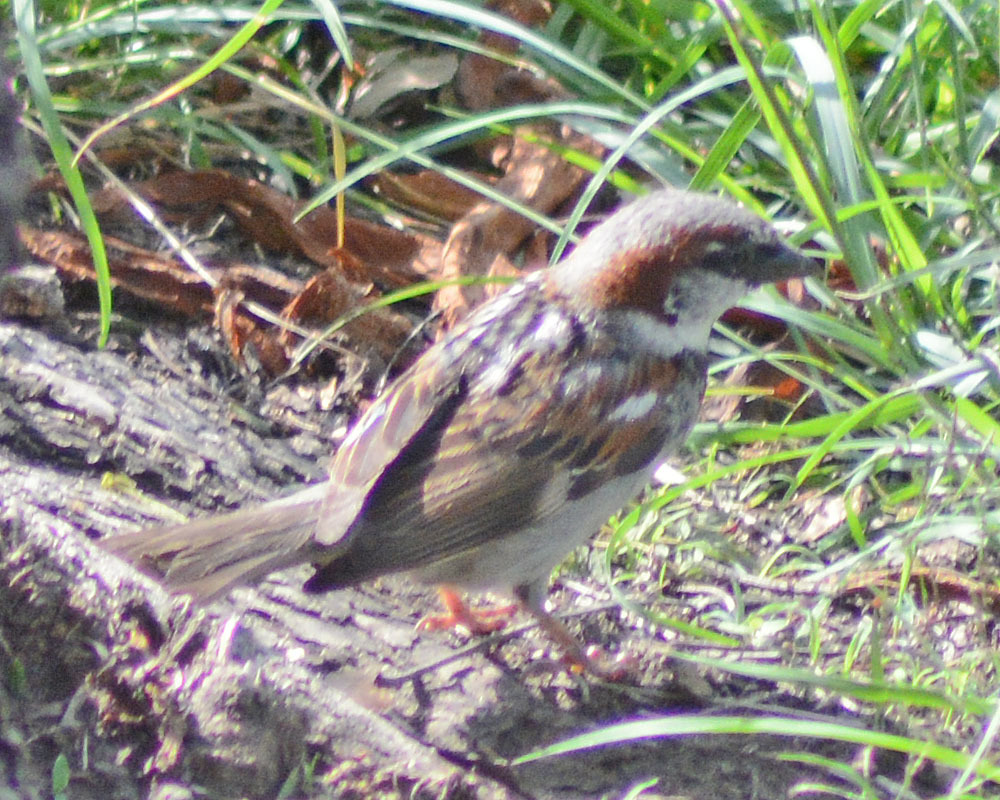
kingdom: Animalia
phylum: Chordata
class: Aves
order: Passeriformes
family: Passeridae
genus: Passer
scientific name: Passer domesticus
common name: House sparrow
